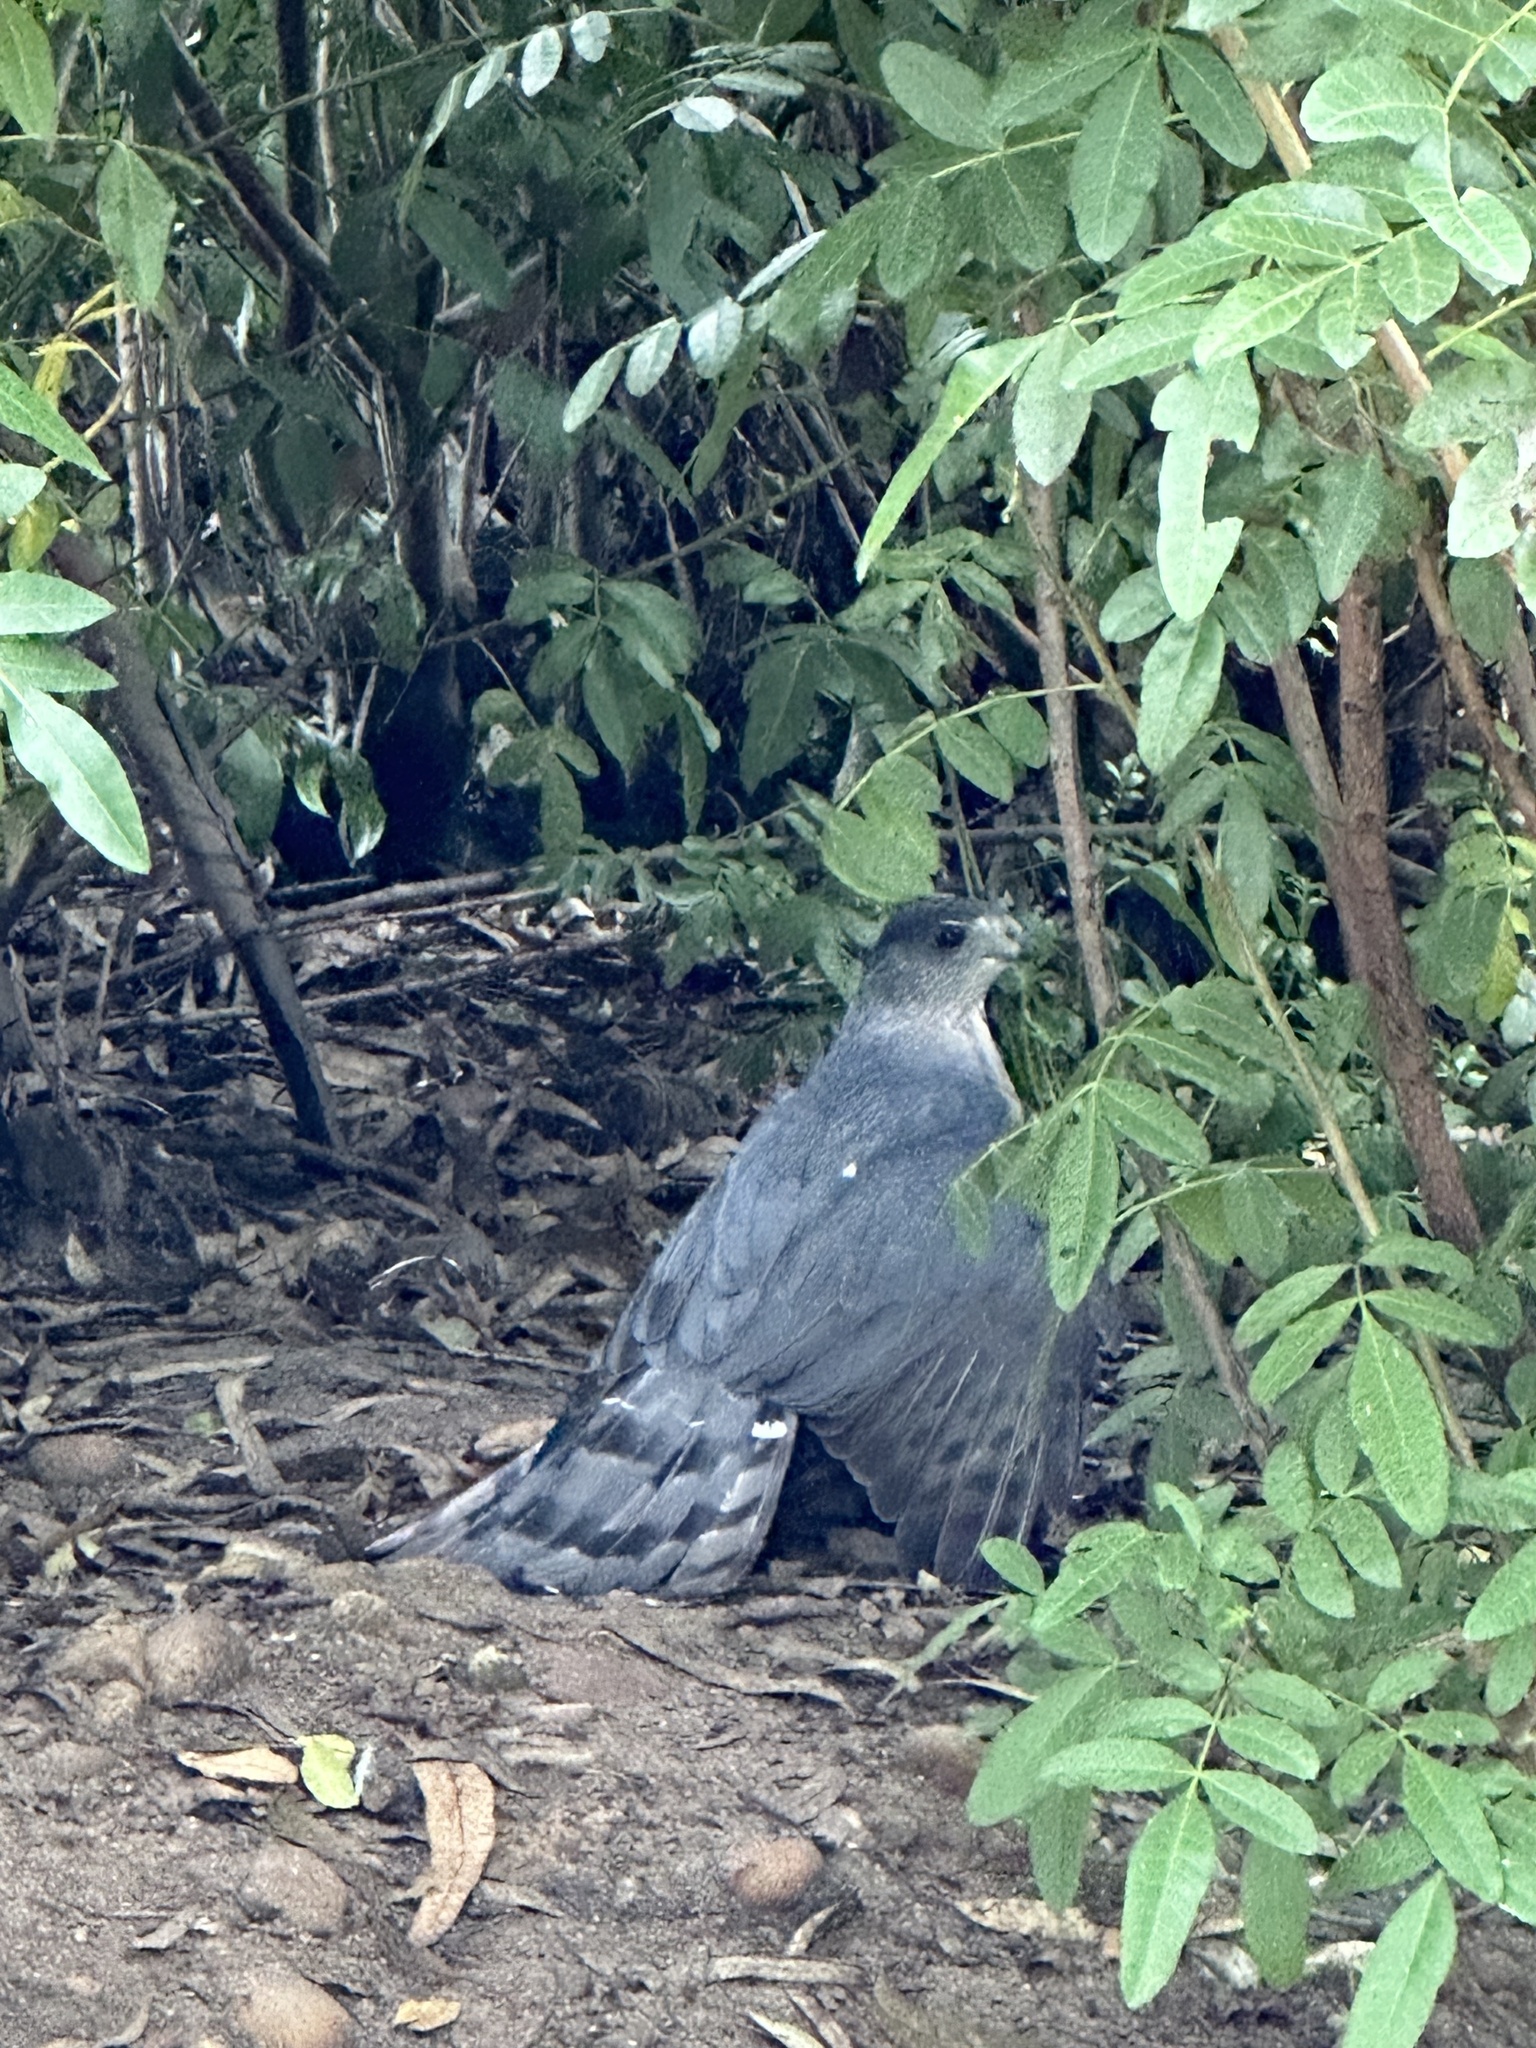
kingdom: Animalia
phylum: Chordata
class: Aves
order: Accipitriformes
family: Accipitridae
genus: Accipiter
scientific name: Accipiter cooperii
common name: Cooper's hawk
